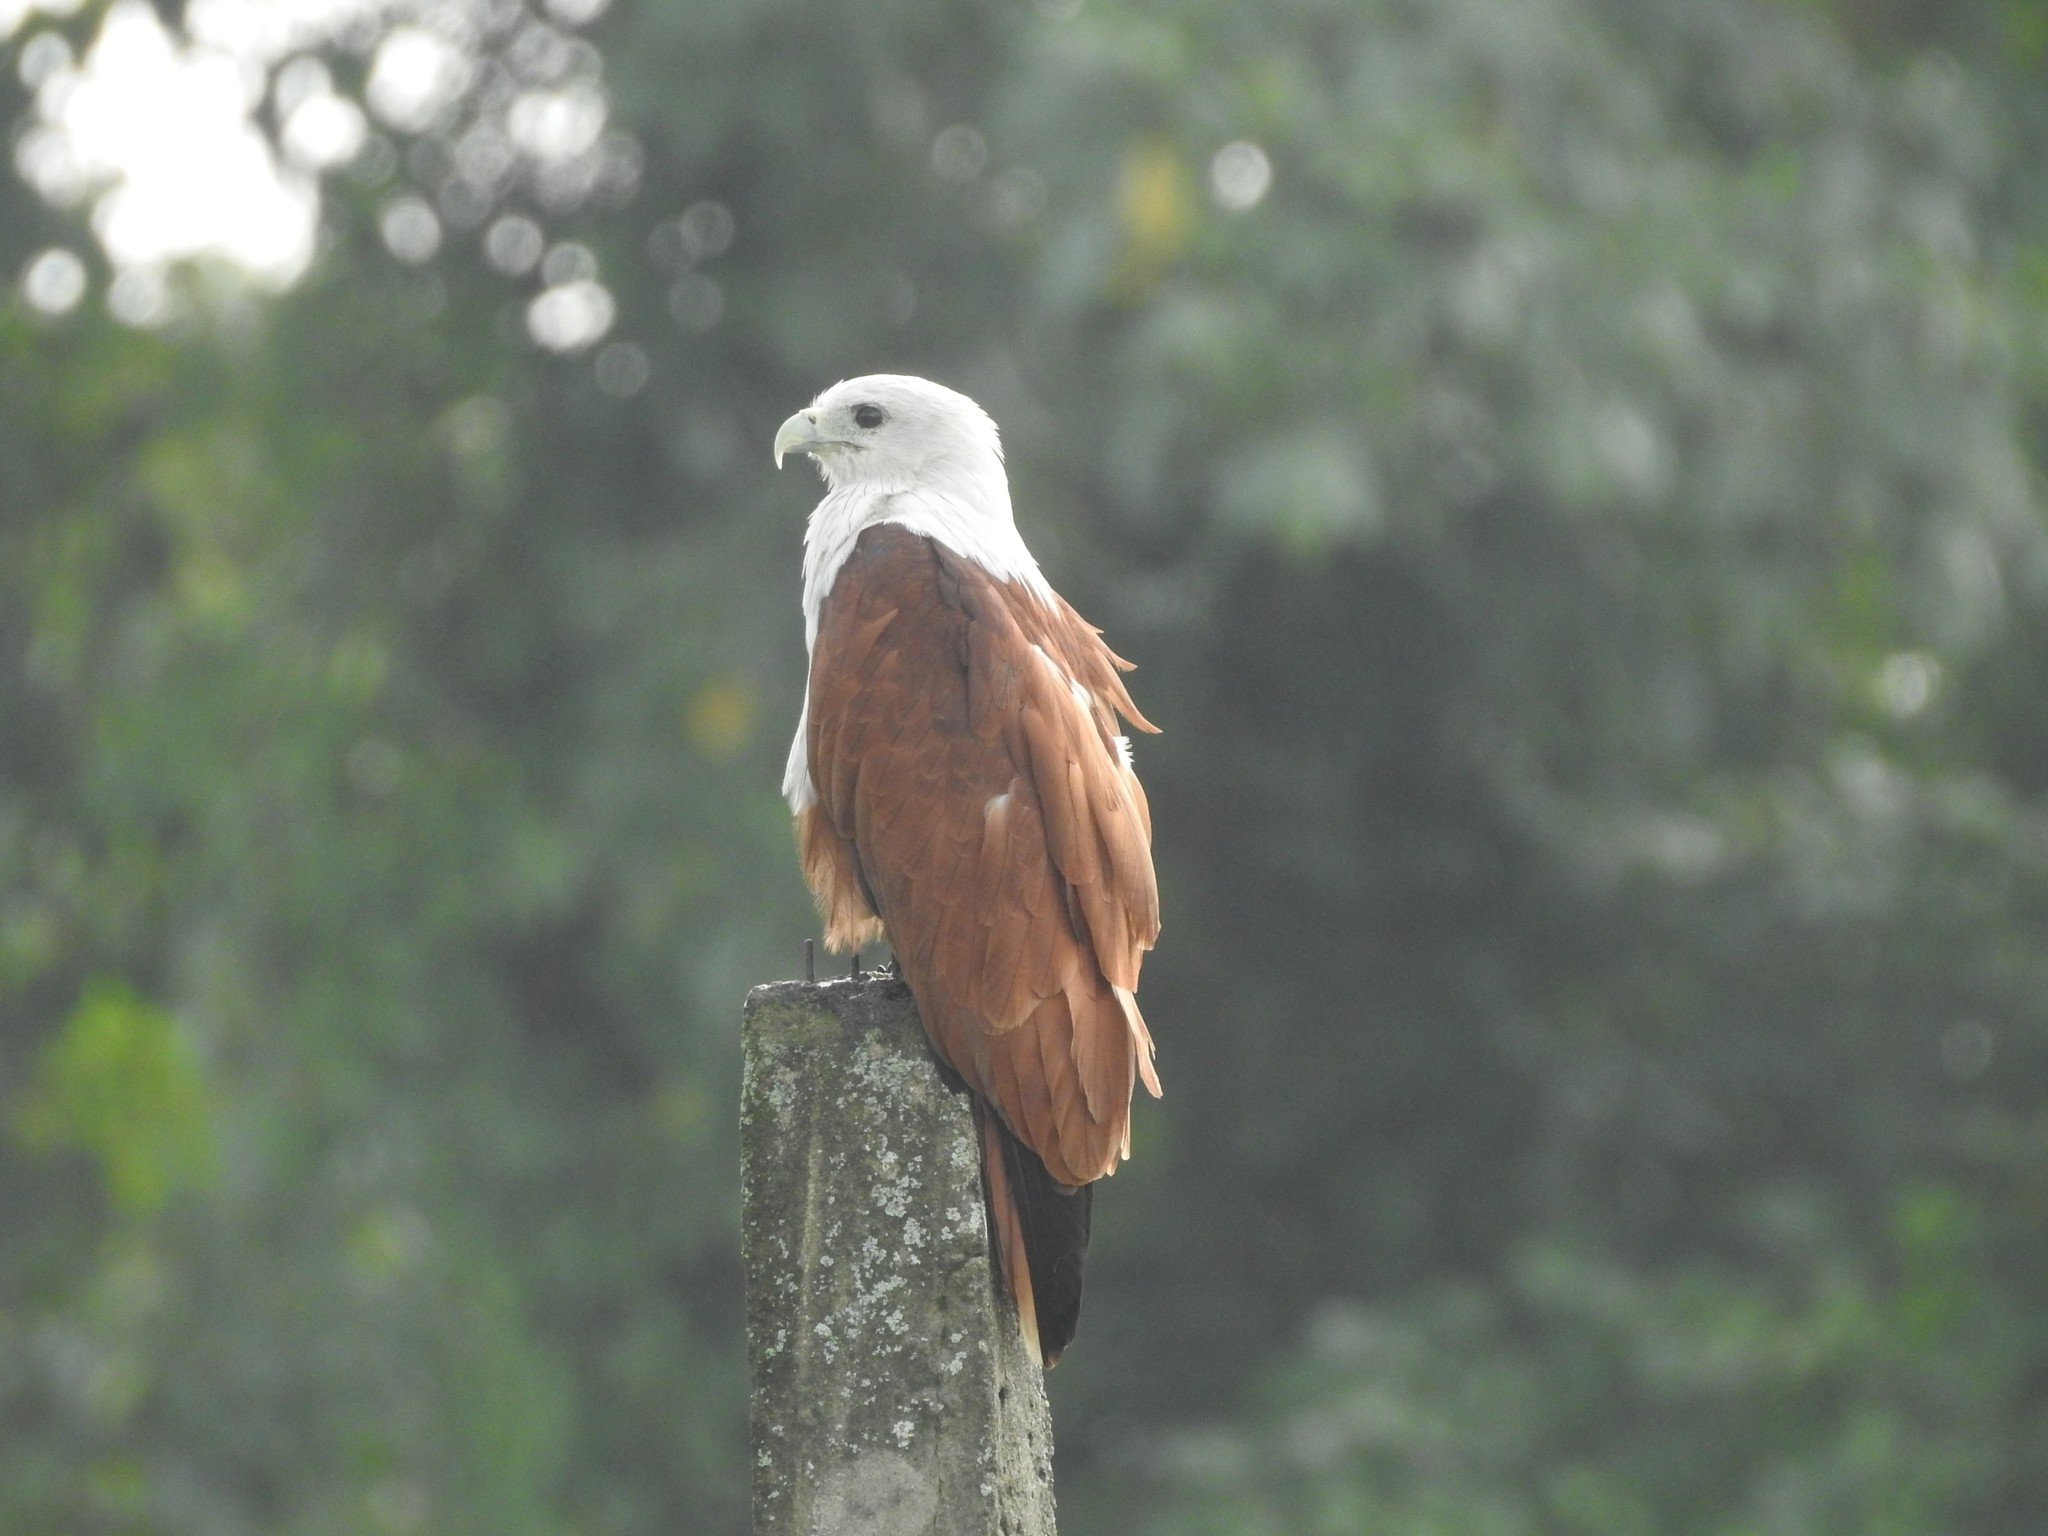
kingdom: Animalia
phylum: Chordata
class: Aves
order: Accipitriformes
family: Accipitridae
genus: Haliastur
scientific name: Haliastur indus
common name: Brahminy kite
